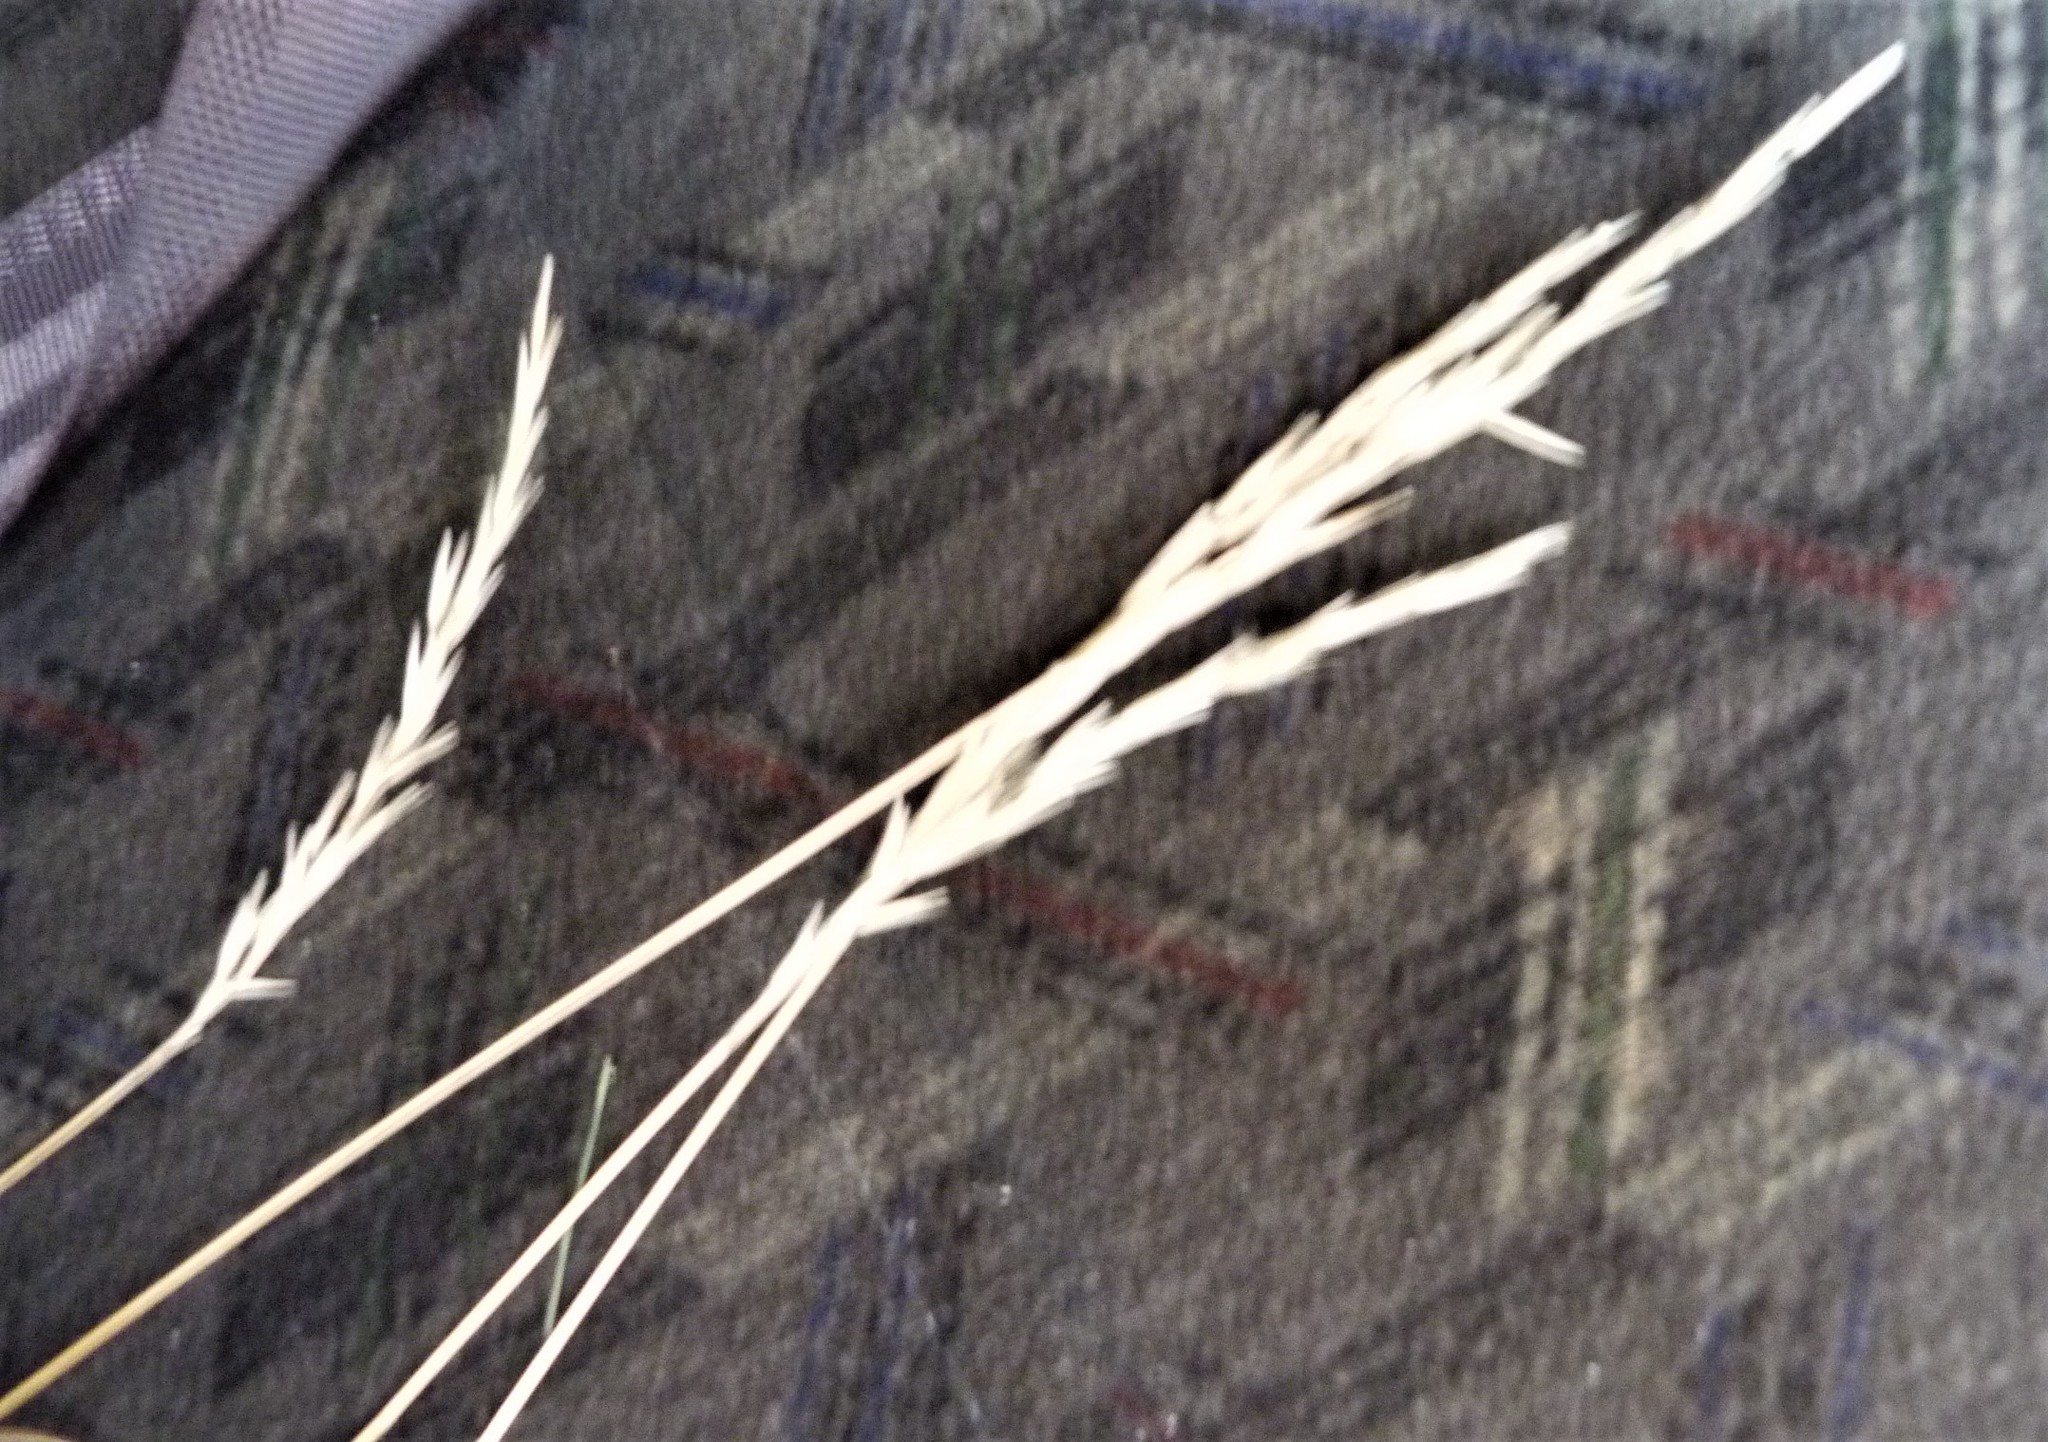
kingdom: Plantae
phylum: Tracheophyta
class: Liliopsida
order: Poales
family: Poaceae
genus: Rytidosperma
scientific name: Rytidosperma gracile
